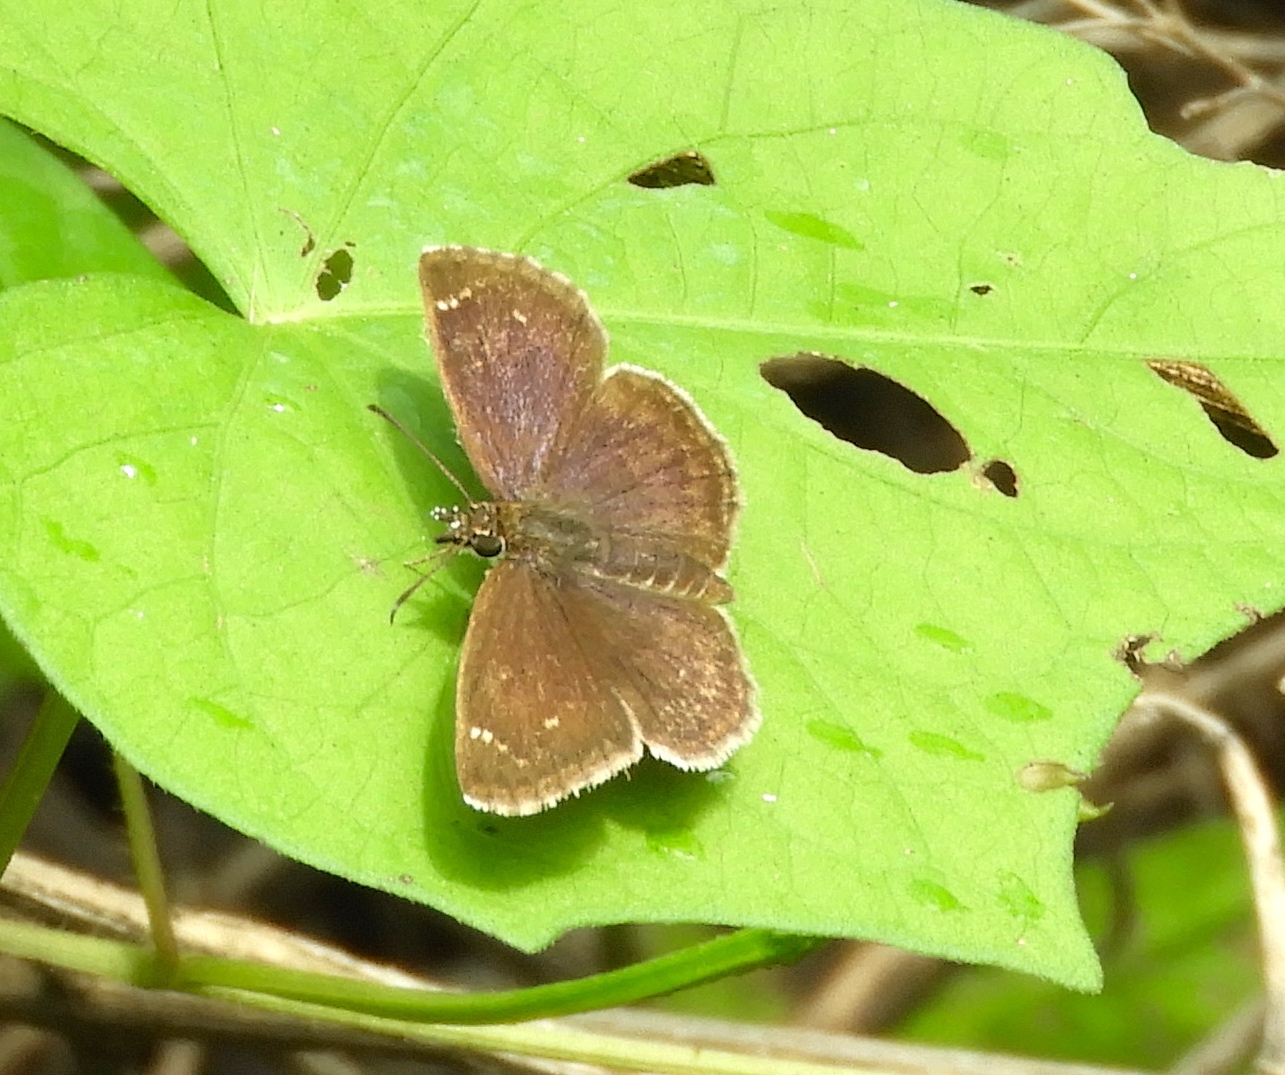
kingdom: Animalia
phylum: Arthropoda
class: Insecta
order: Lepidoptera
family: Hesperiidae
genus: Zopyrion
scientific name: Zopyrion sandace
